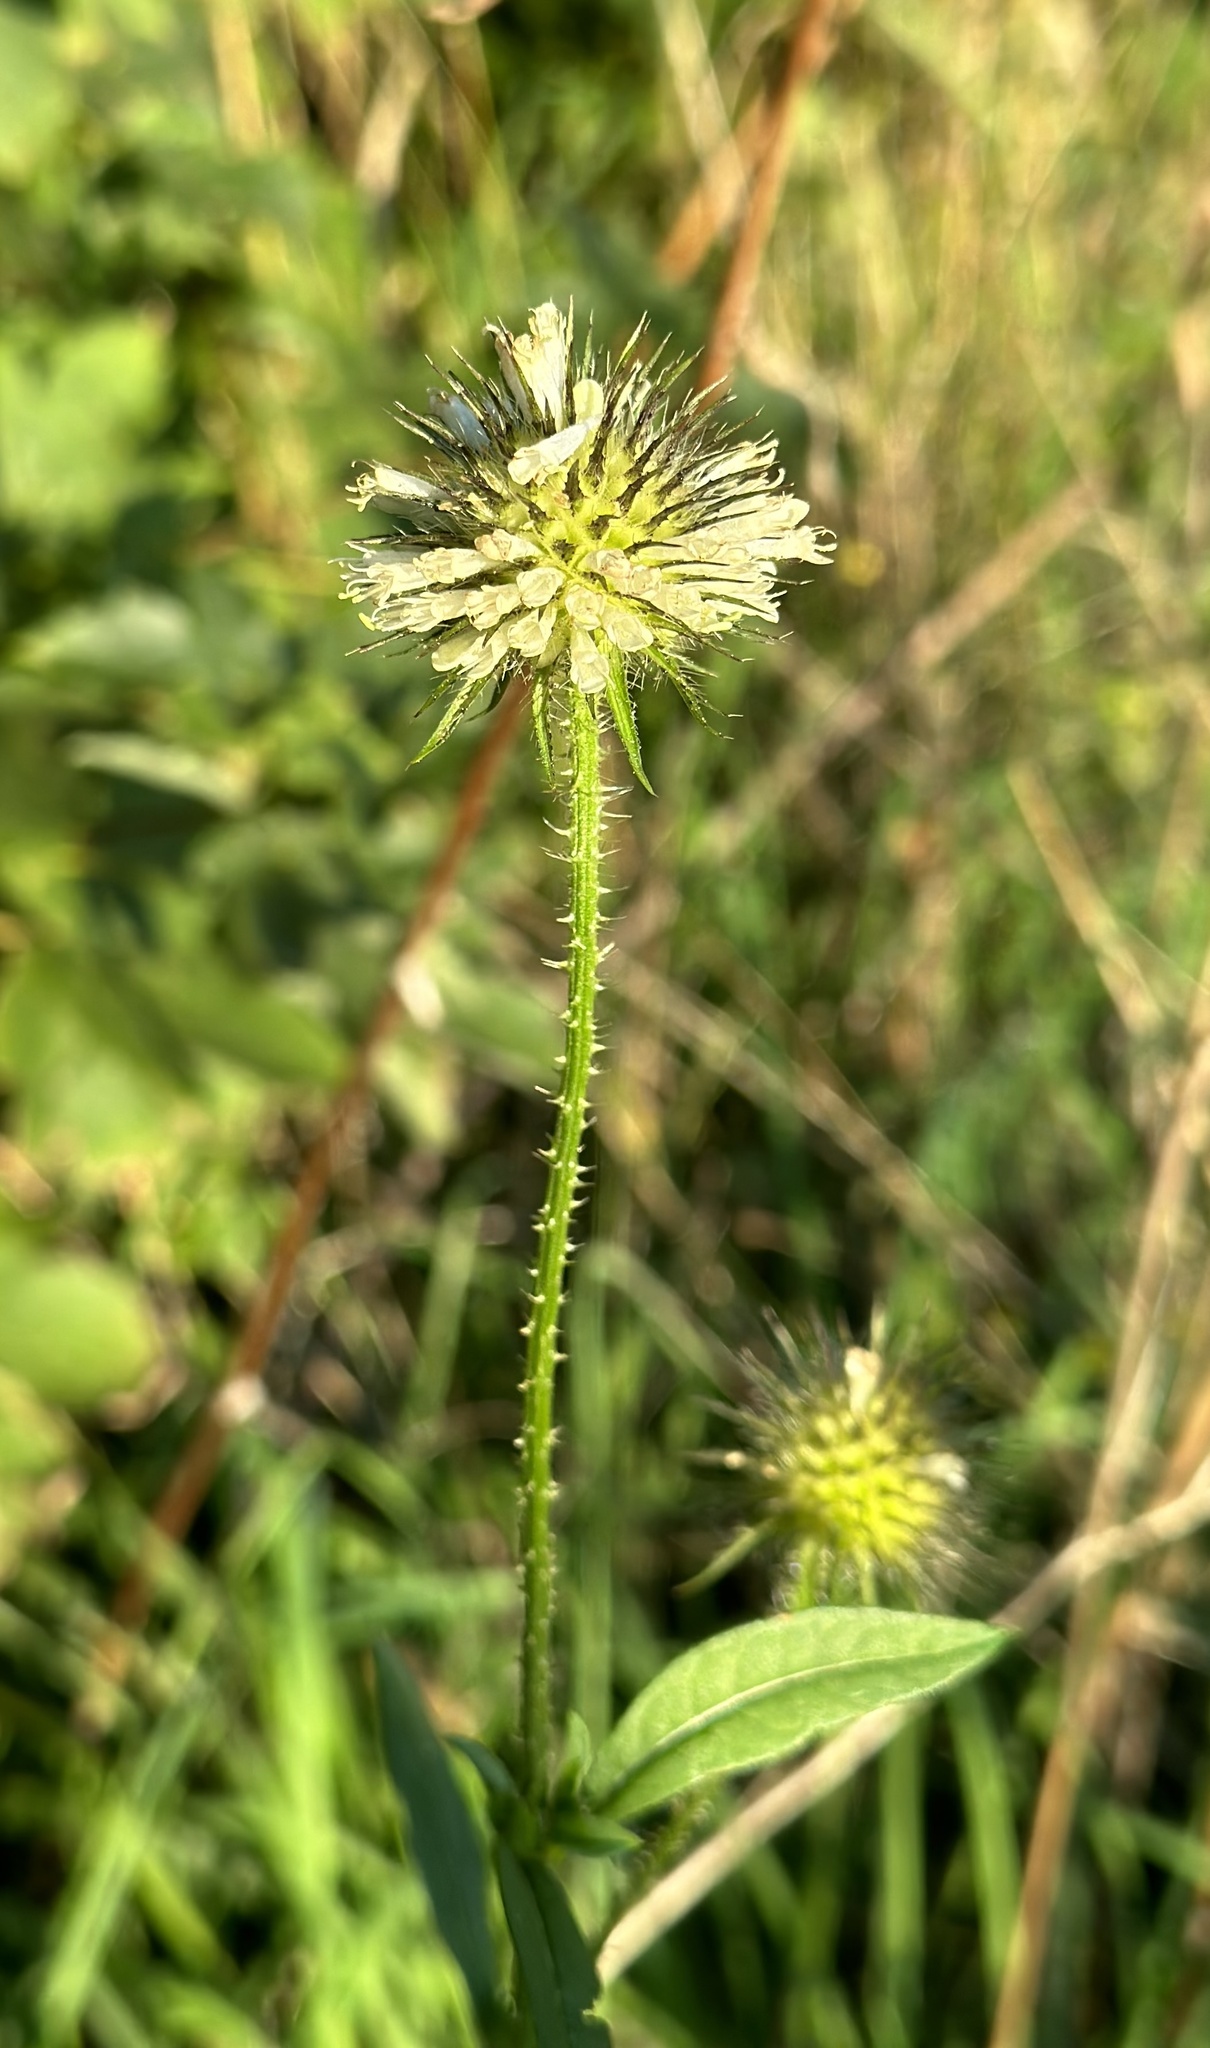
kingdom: Plantae
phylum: Tracheophyta
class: Magnoliopsida
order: Dipsacales
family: Caprifoliaceae
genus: Dipsacus
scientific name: Dipsacus strigosus
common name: Yellow-flowered teasel
